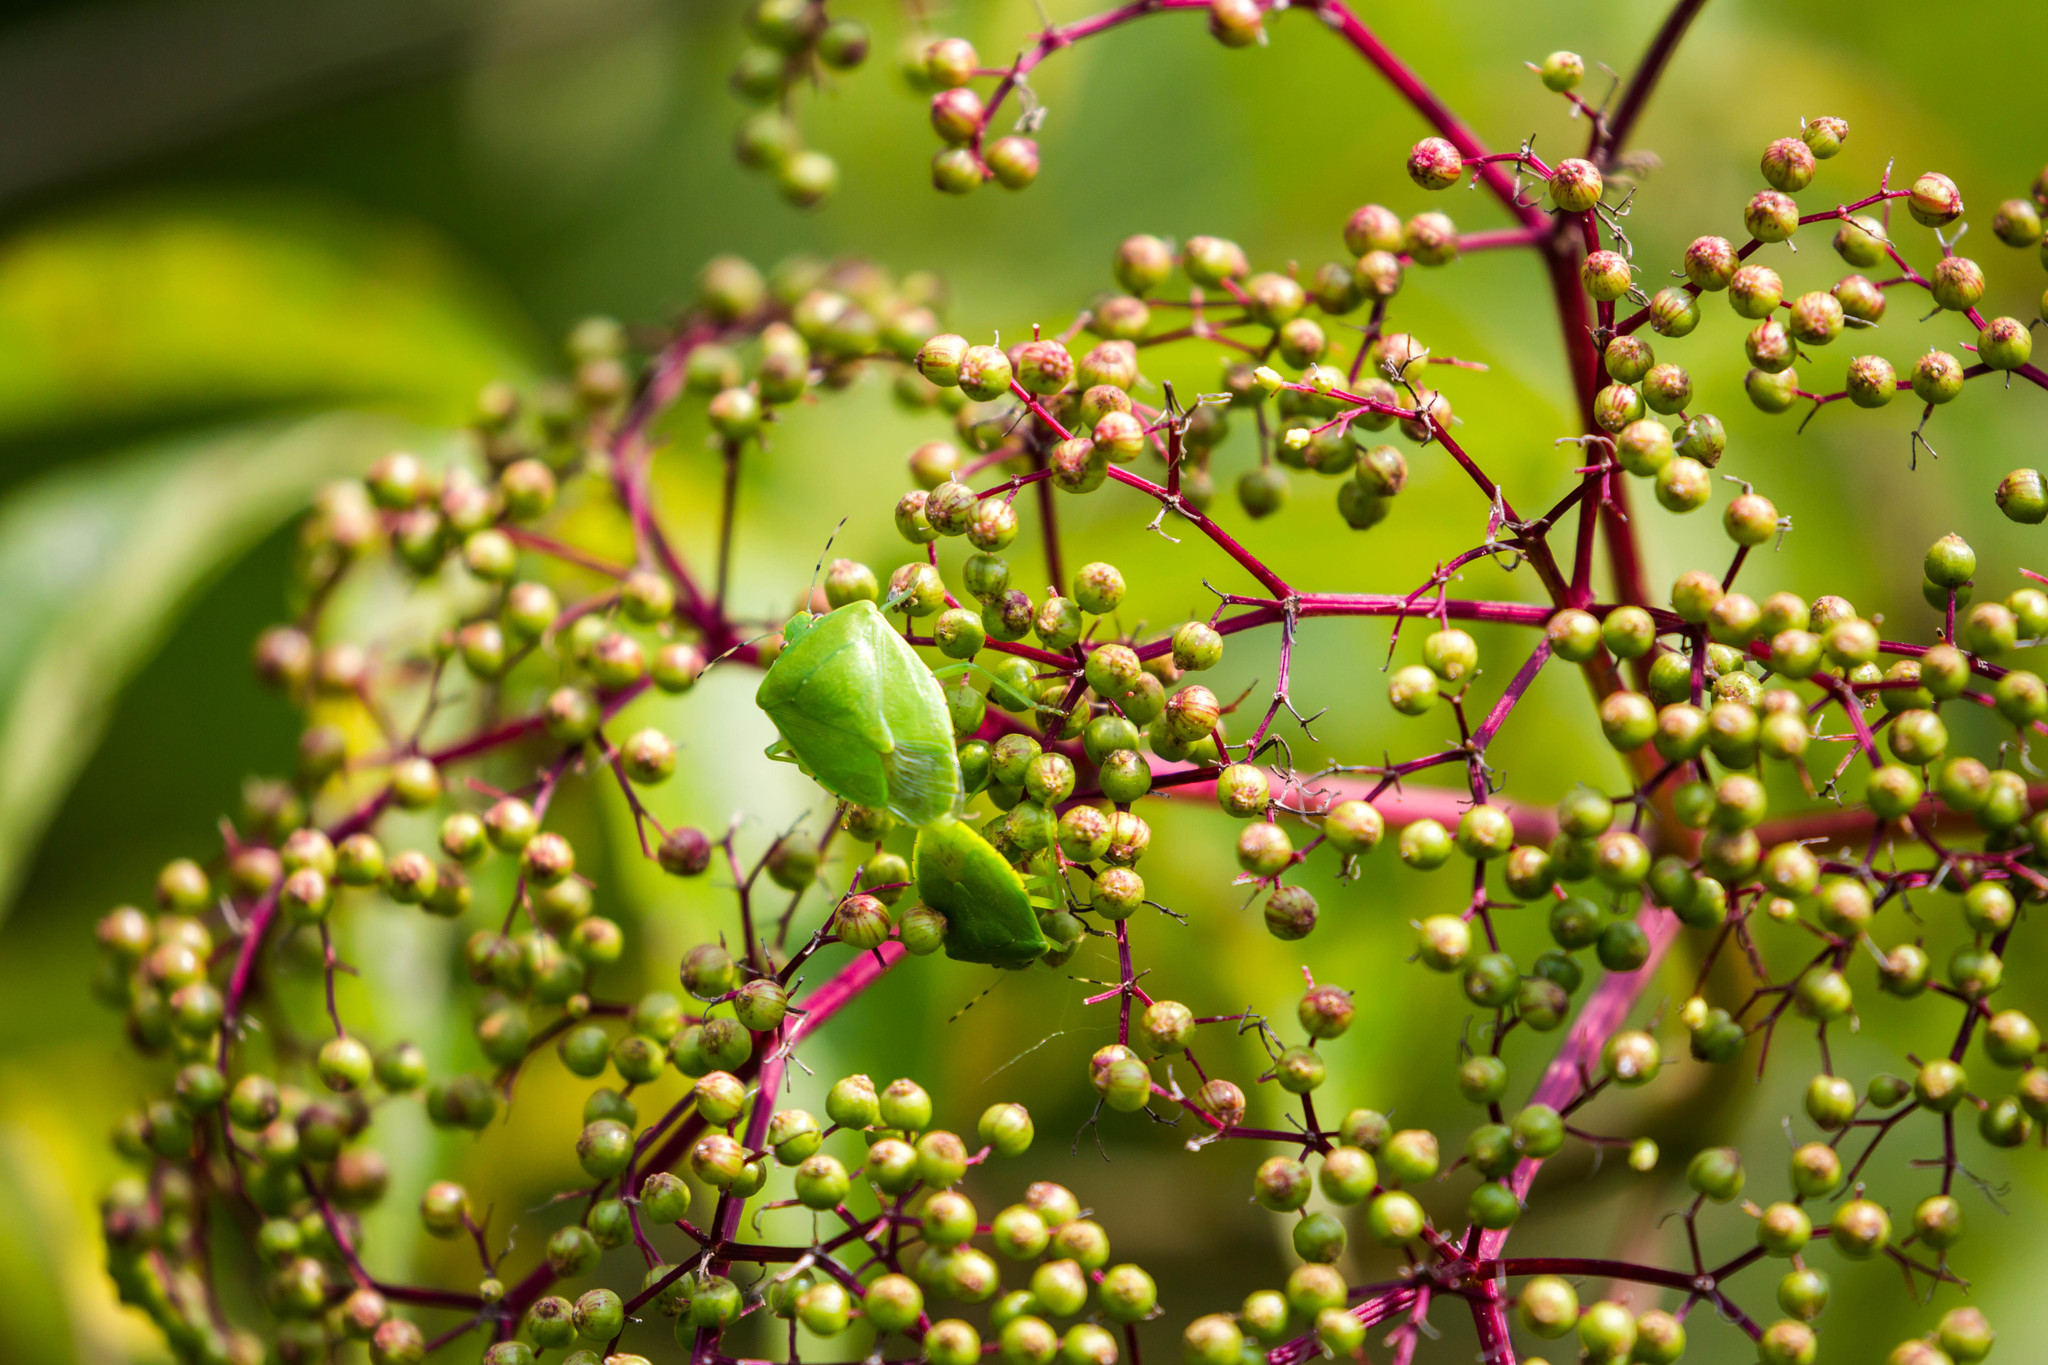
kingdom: Animalia
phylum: Arthropoda
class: Insecta
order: Hemiptera
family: Pentatomidae
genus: Chinavia
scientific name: Chinavia hilaris
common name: Green stink bug
